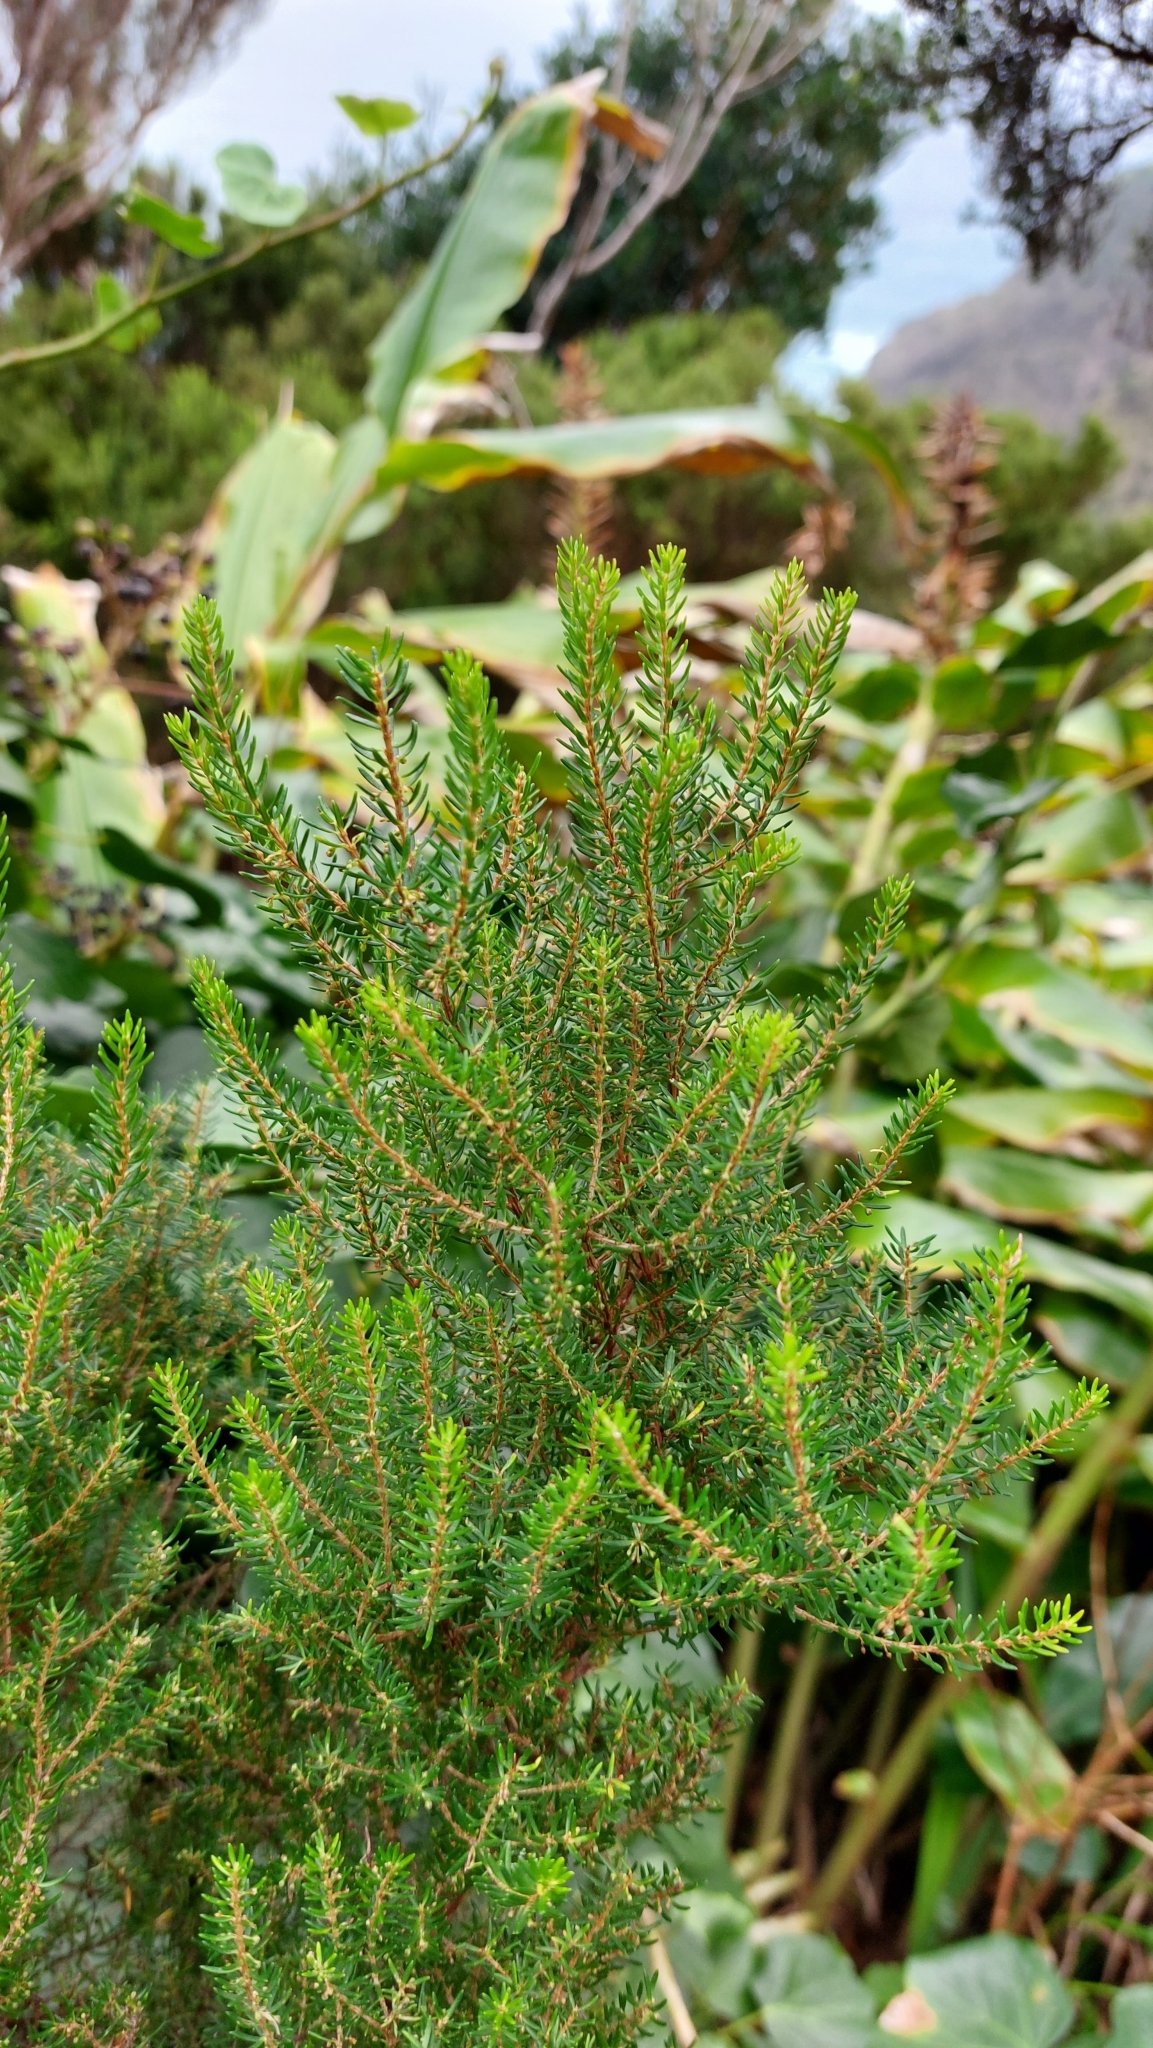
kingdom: Plantae
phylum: Tracheophyta
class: Magnoliopsida
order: Ericales
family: Ericaceae
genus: Erica
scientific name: Erica azorica
